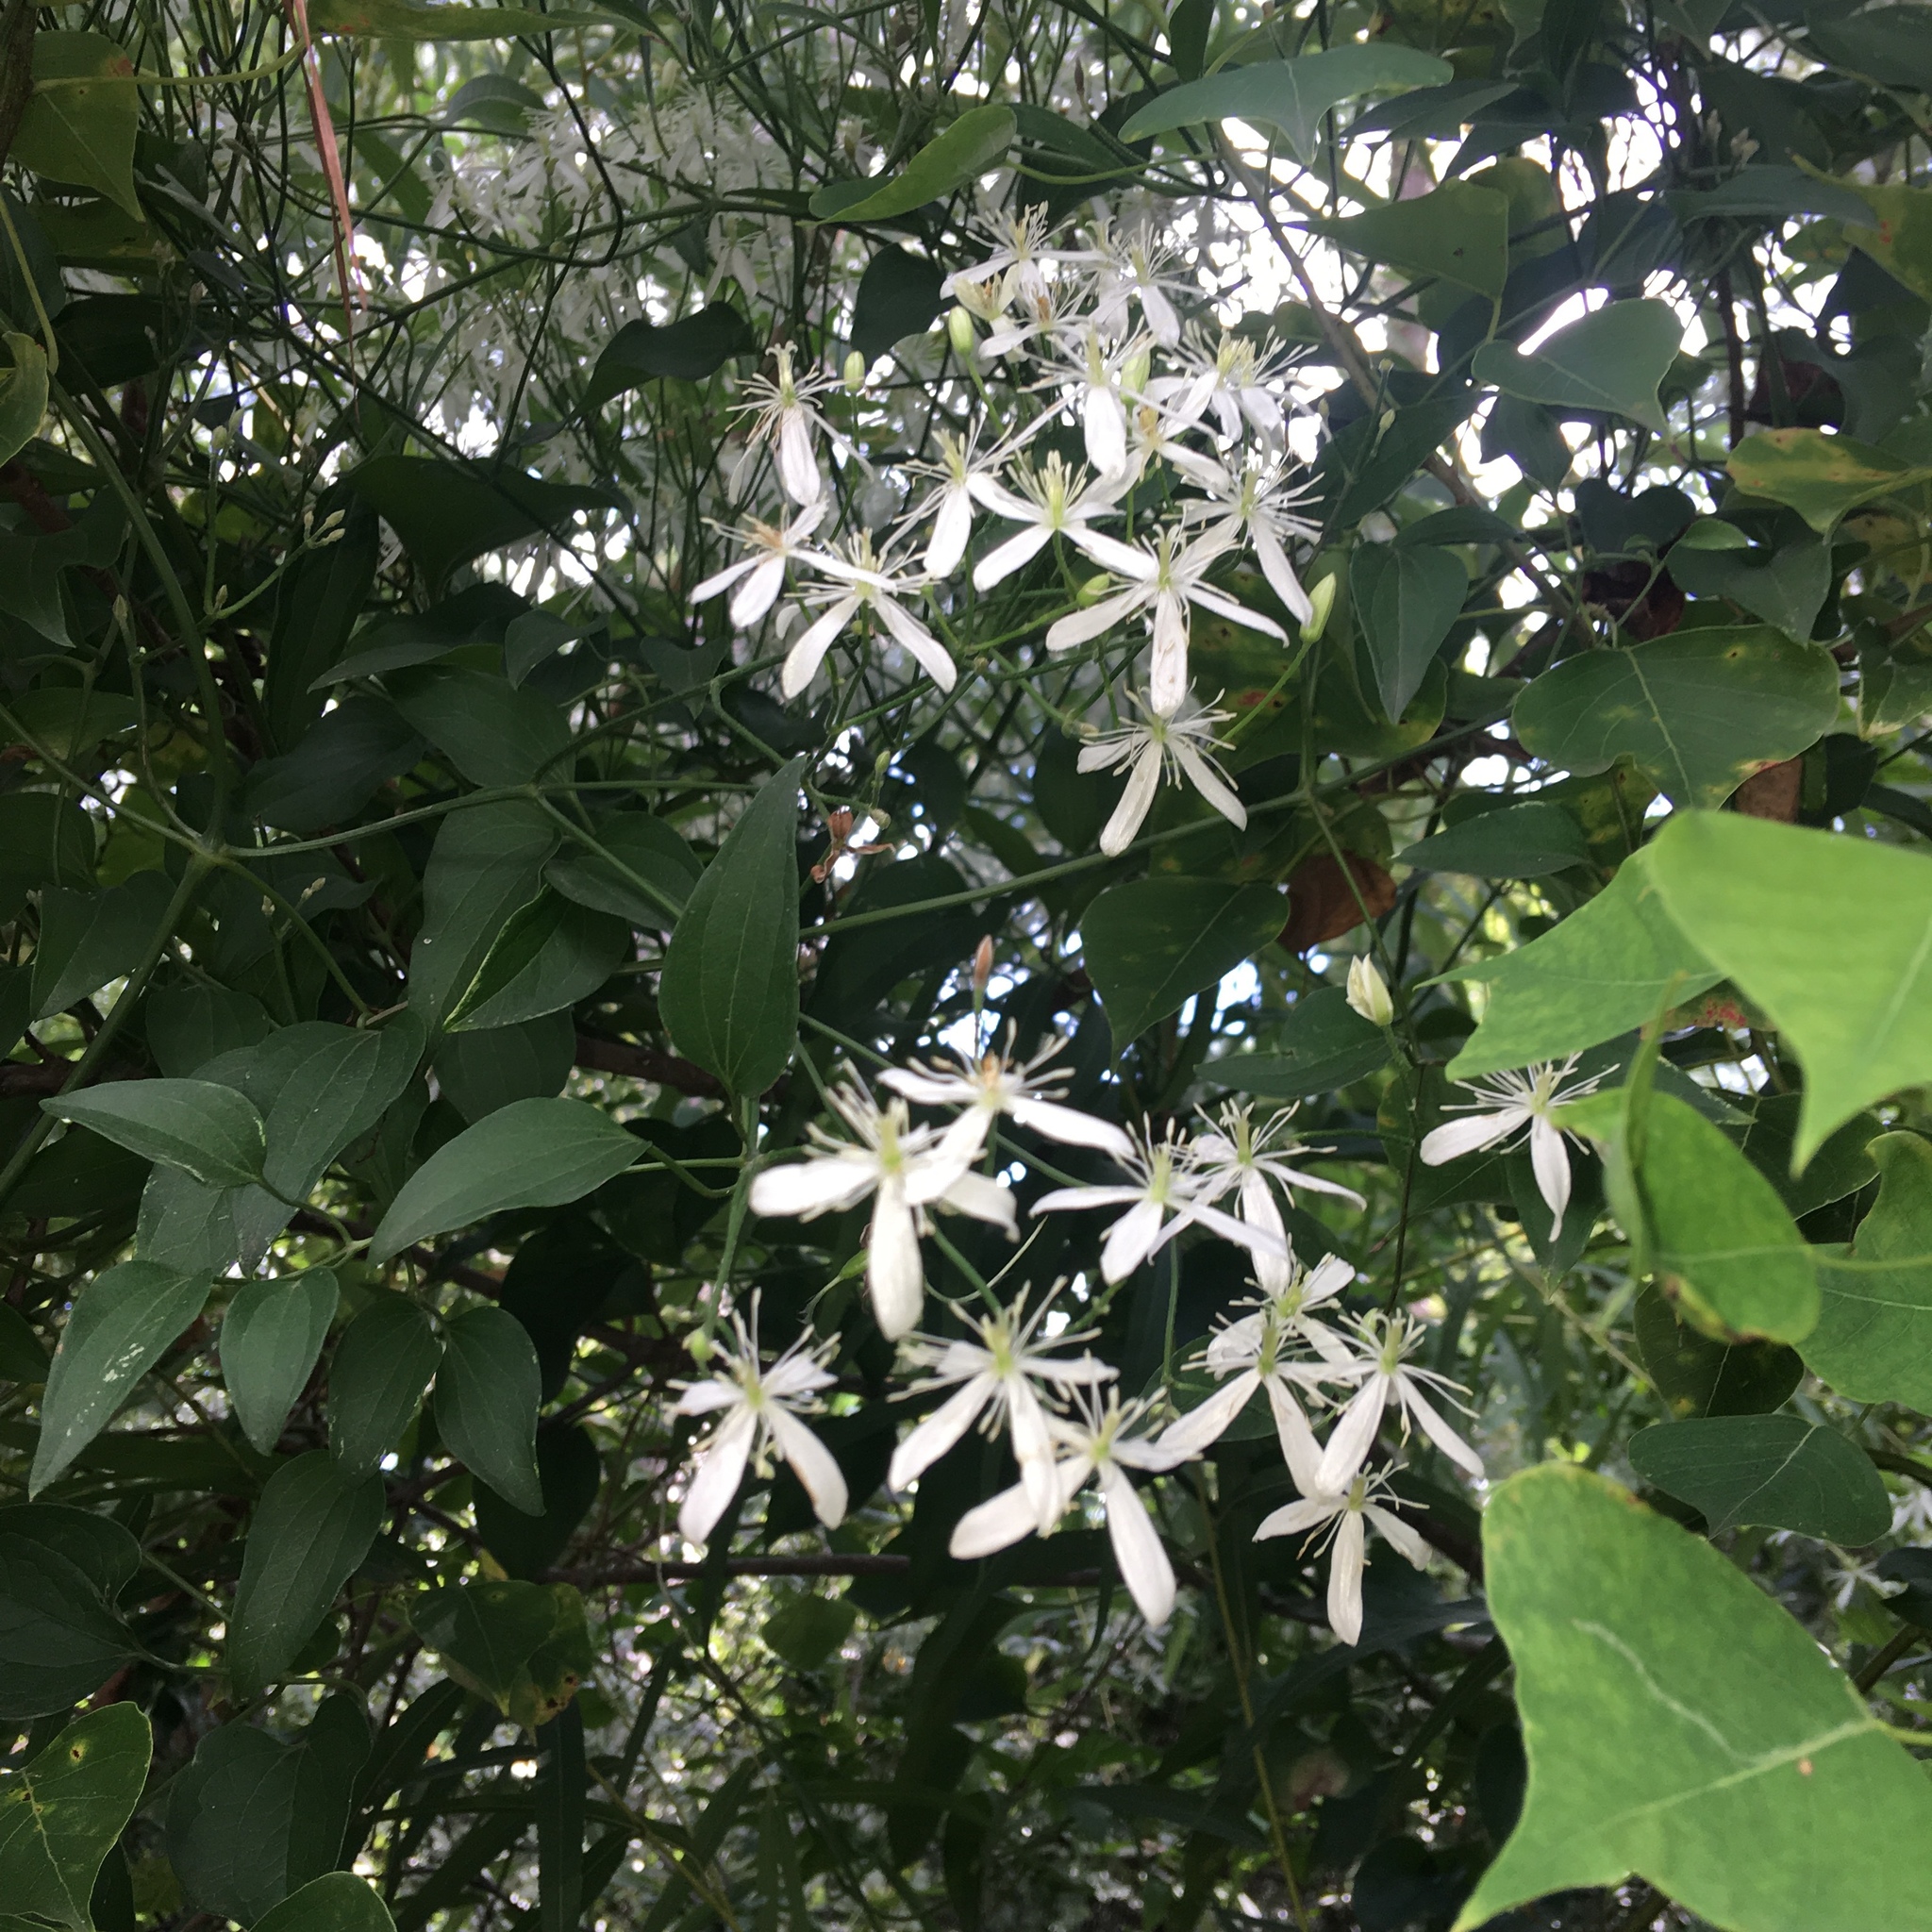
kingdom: Plantae
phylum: Tracheophyta
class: Magnoliopsida
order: Ranunculales
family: Ranunculaceae
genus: Clematis
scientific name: Clematis terniflora
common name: Sweet autumn clematis
